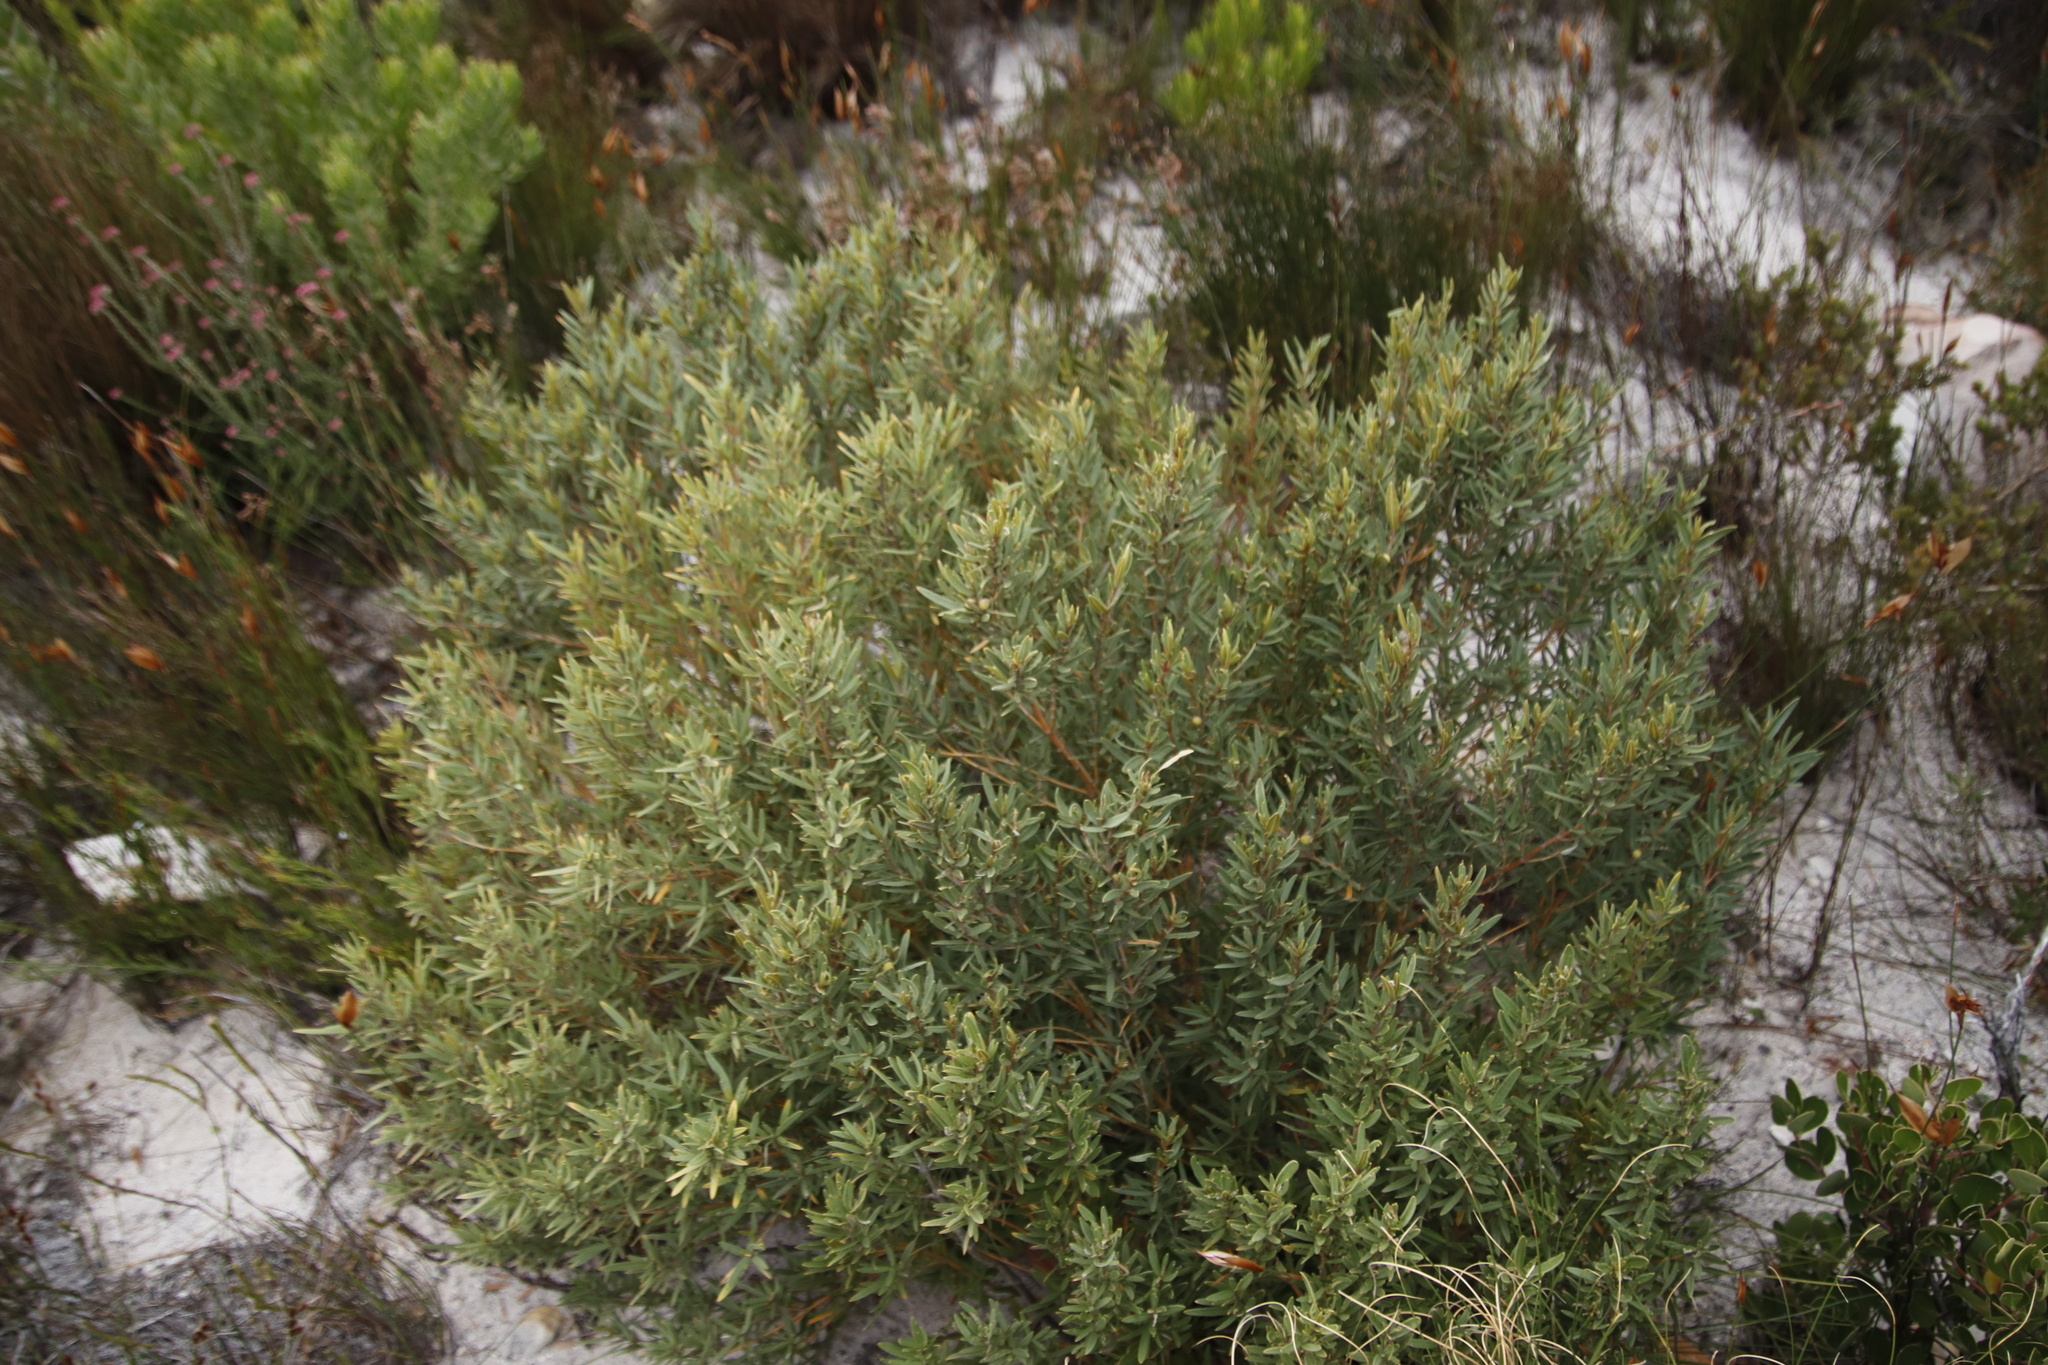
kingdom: Plantae
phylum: Tracheophyta
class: Magnoliopsida
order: Cornales
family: Grubbiaceae
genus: Grubbia
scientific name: Grubbia tomentosa
